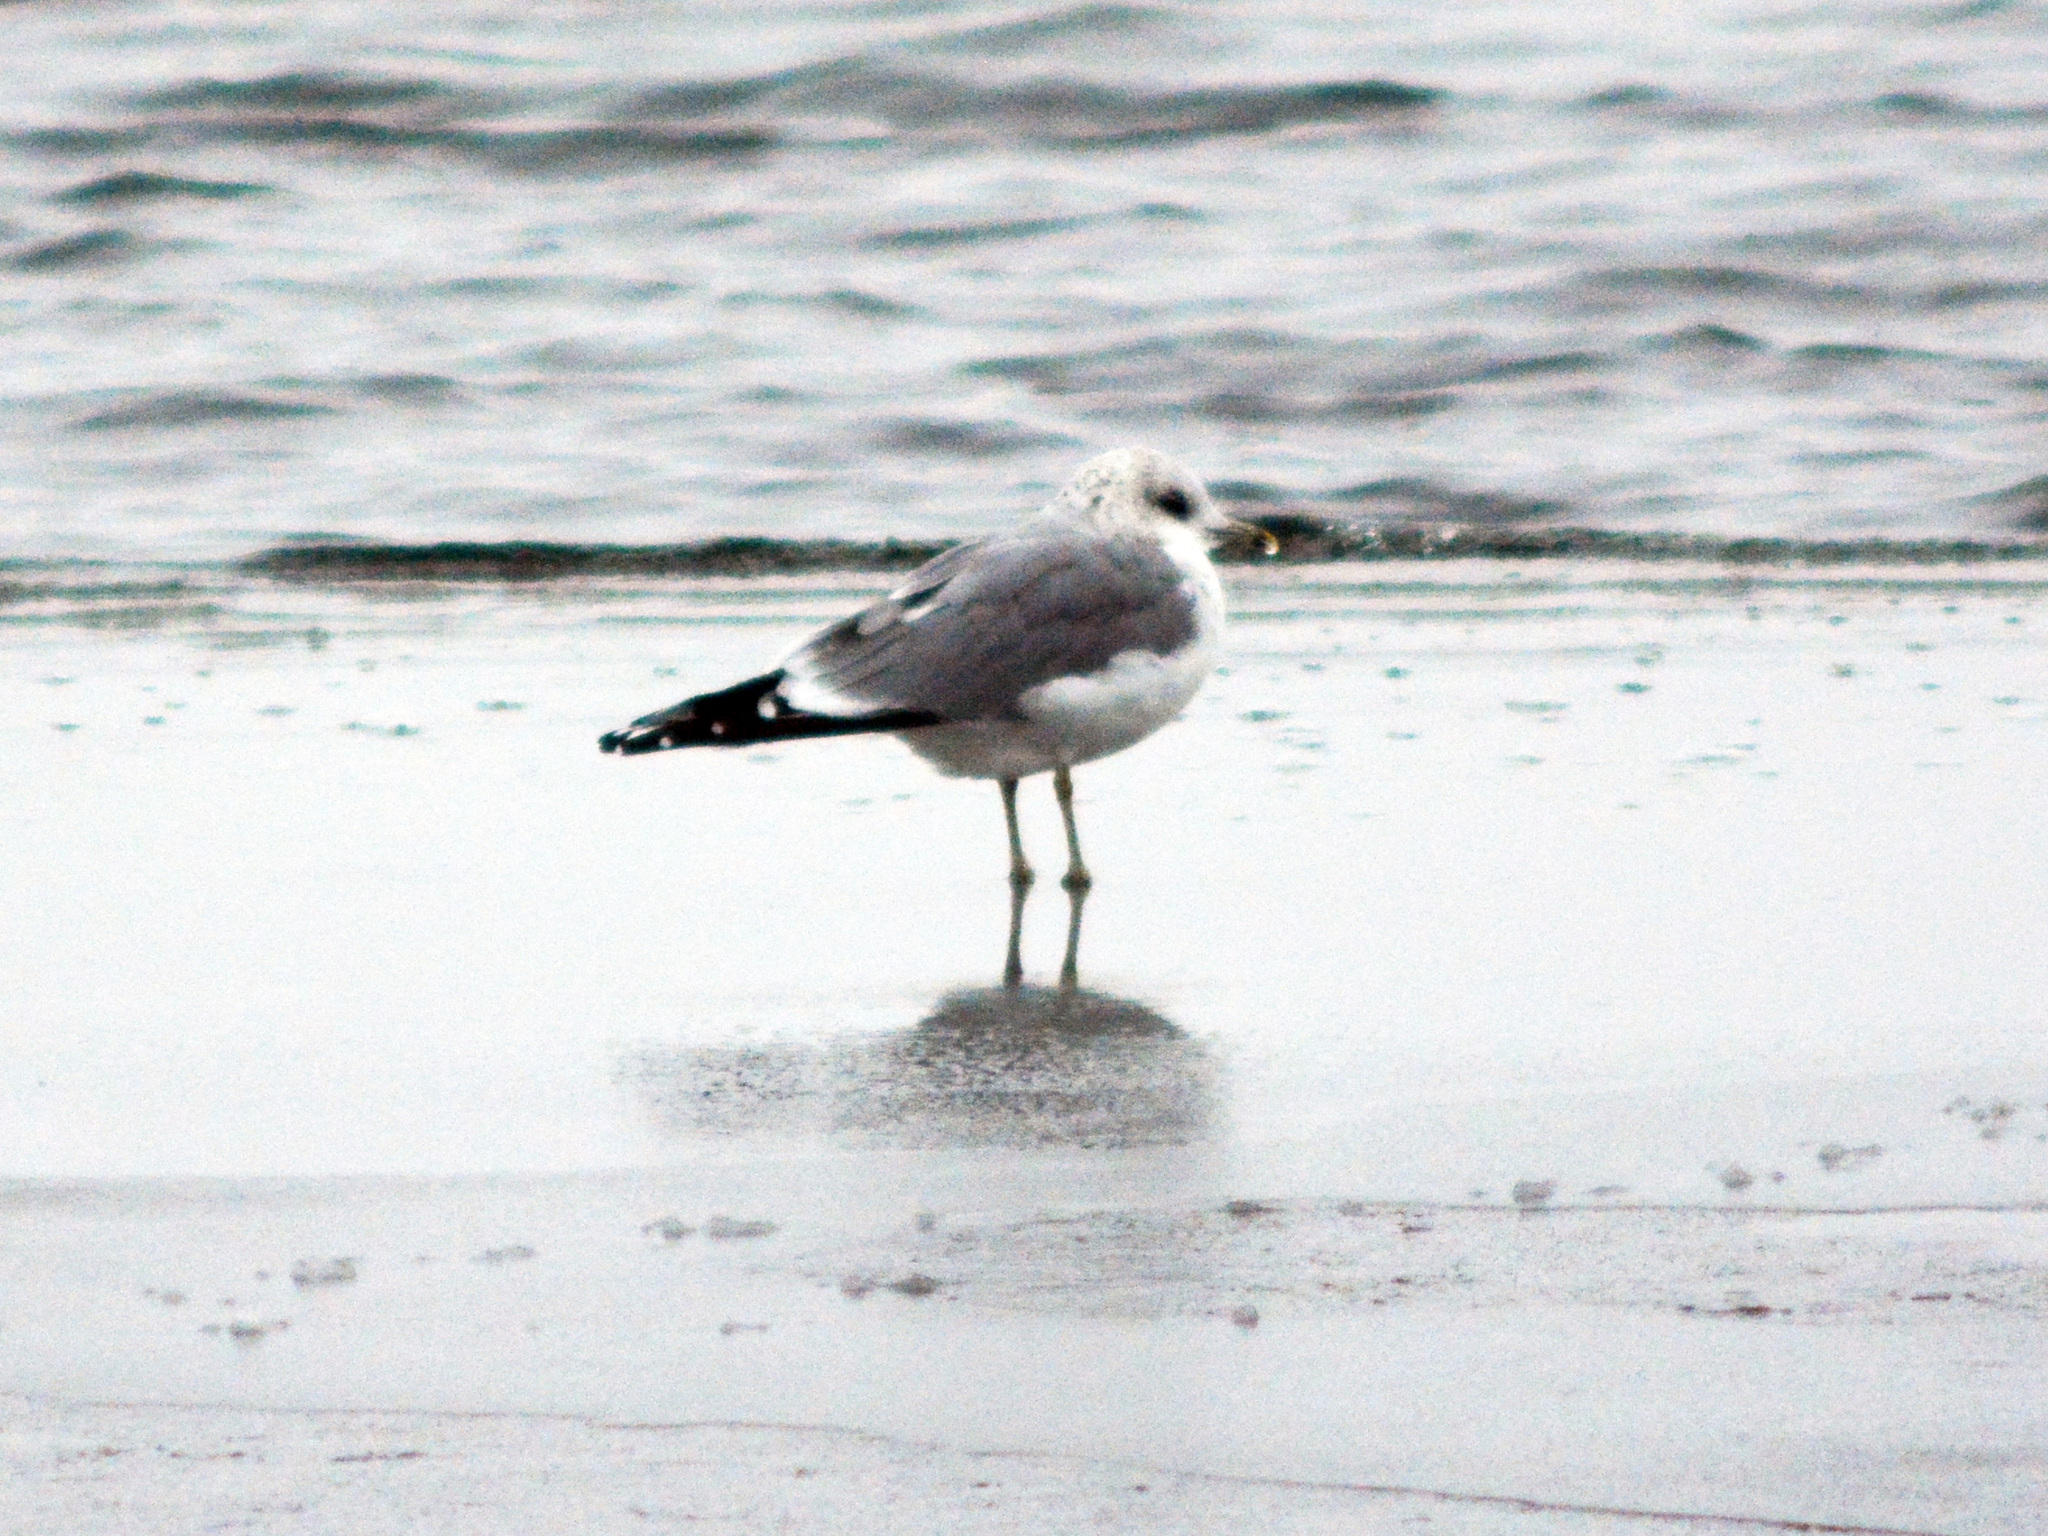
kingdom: Animalia
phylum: Chordata
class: Aves
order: Charadriiformes
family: Laridae
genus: Larus
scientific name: Larus canus
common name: Mew gull
